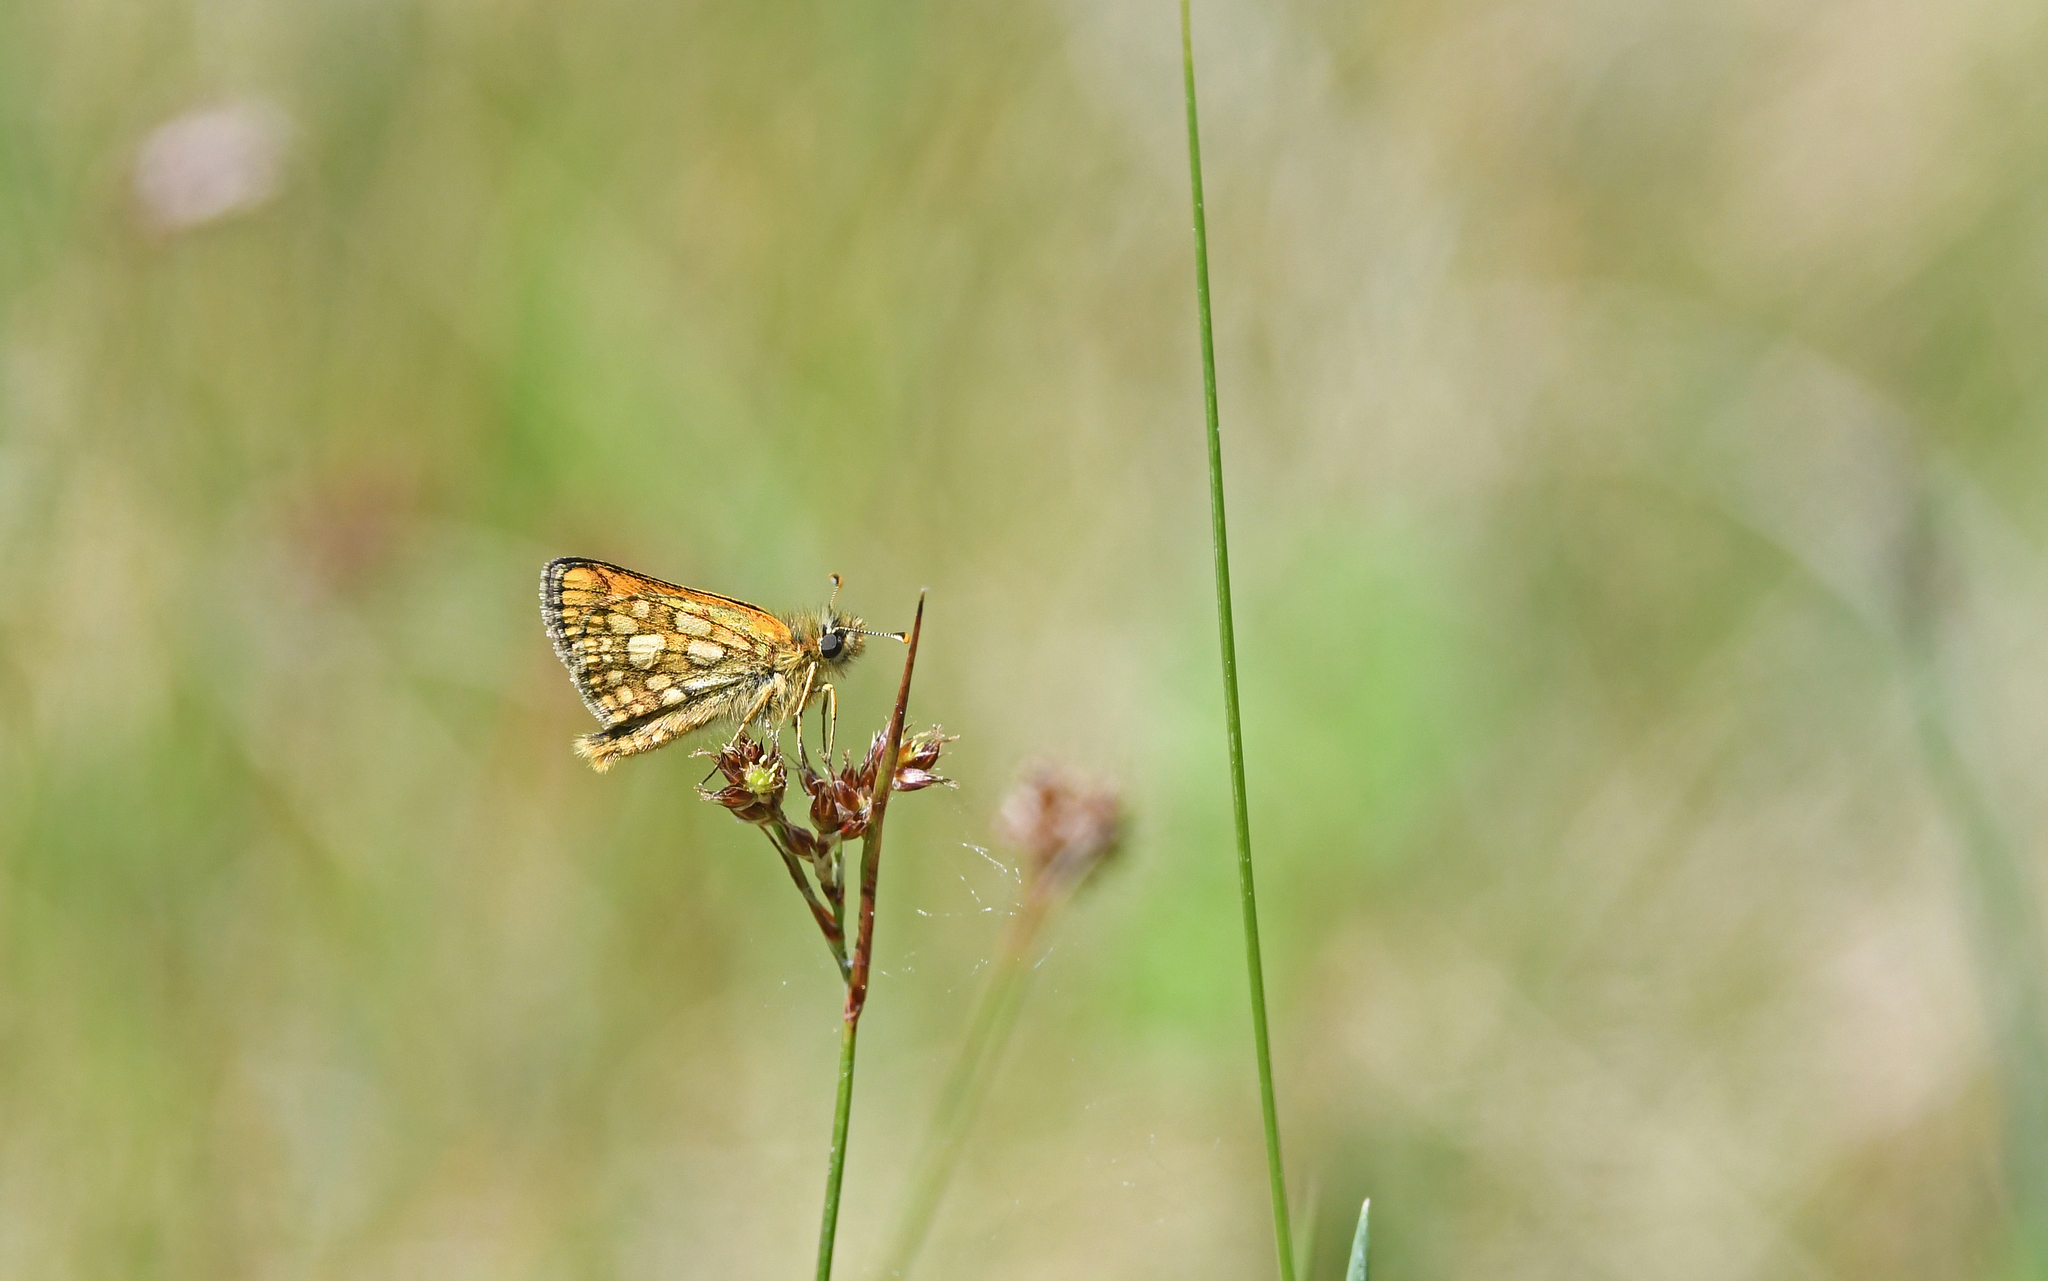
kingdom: Animalia
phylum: Arthropoda
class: Insecta
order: Lepidoptera
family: Hesperiidae
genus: Carterocephalus
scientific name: Carterocephalus palaemon
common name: Chequered skipper
